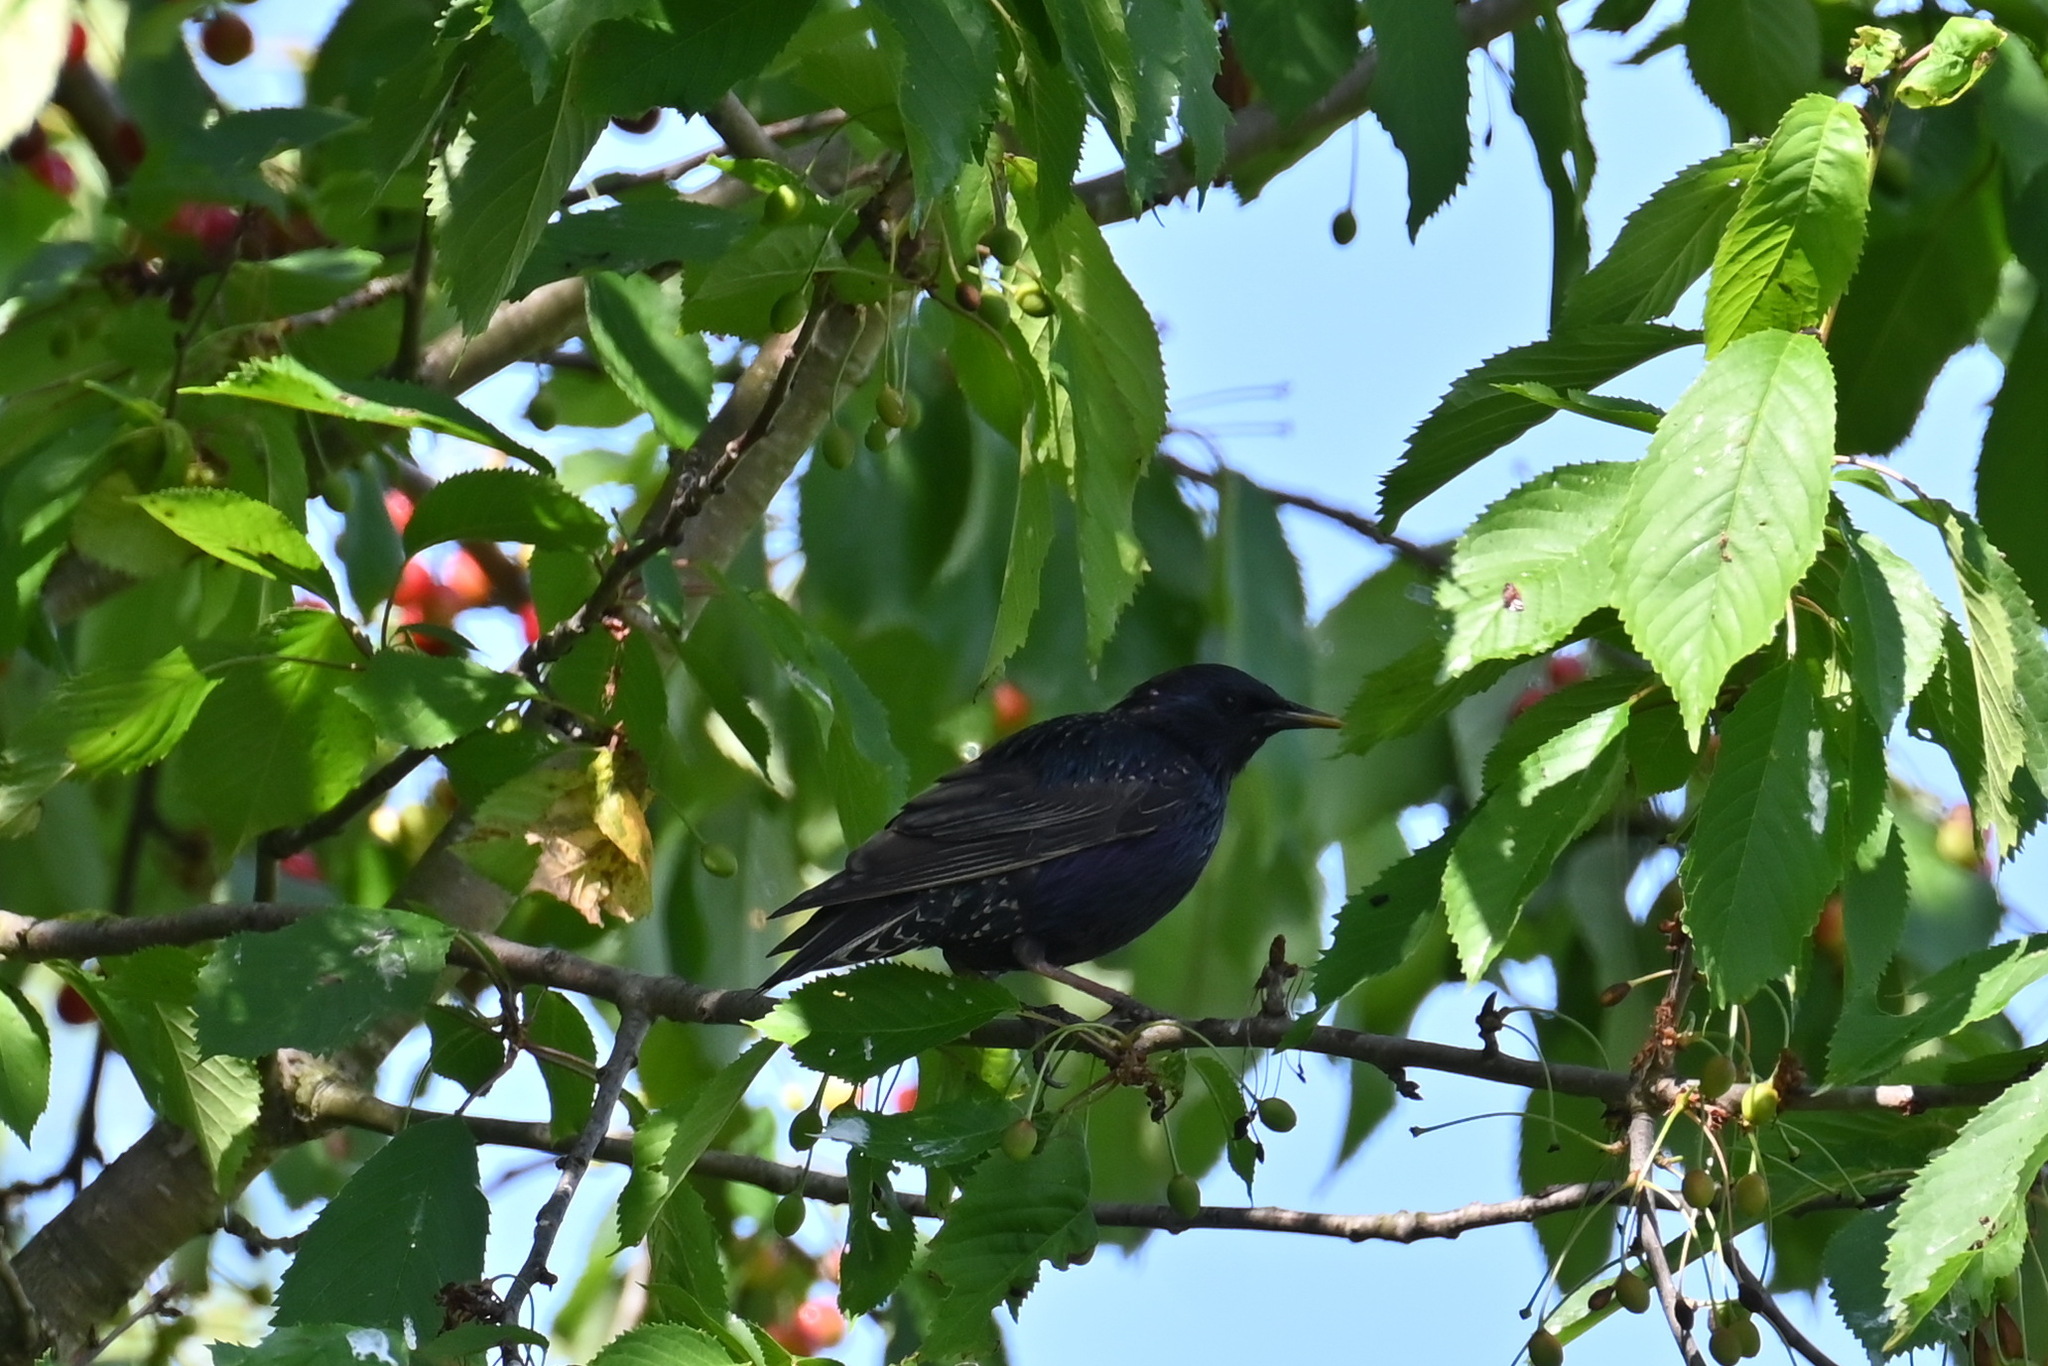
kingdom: Animalia
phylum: Chordata
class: Aves
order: Passeriformes
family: Sturnidae
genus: Sturnus
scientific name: Sturnus vulgaris
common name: Common starling
